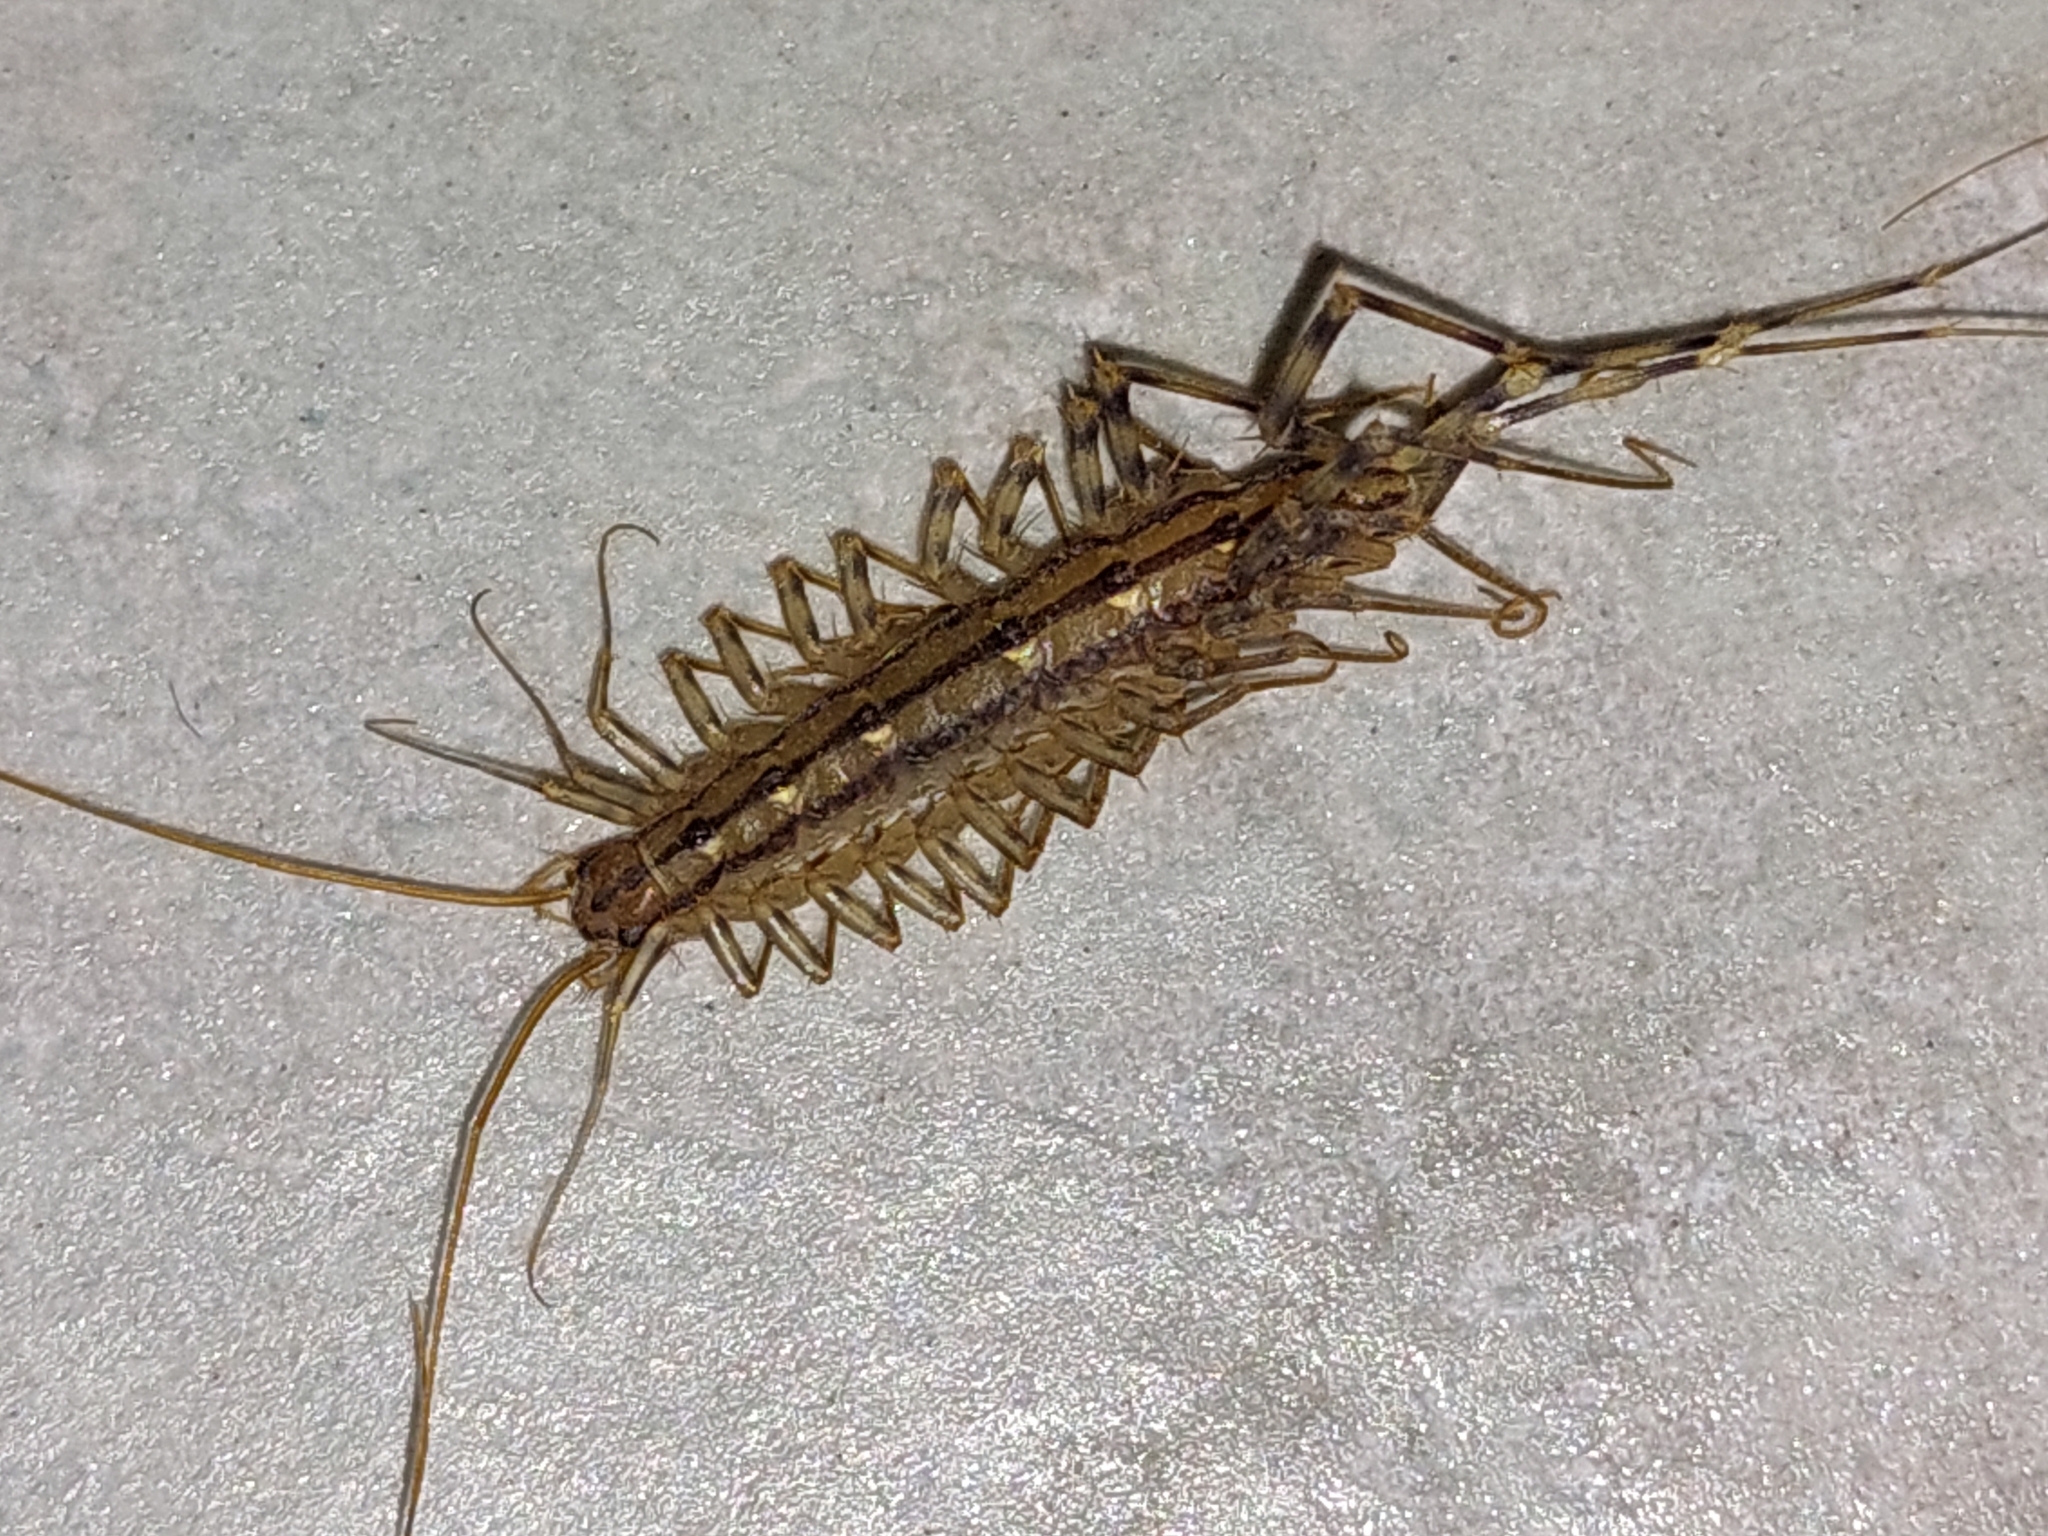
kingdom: Animalia
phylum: Arthropoda
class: Chilopoda
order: Scutigeromorpha
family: Scutigeridae
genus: Scutigera
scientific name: Scutigera coleoptrata
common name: House centipede
